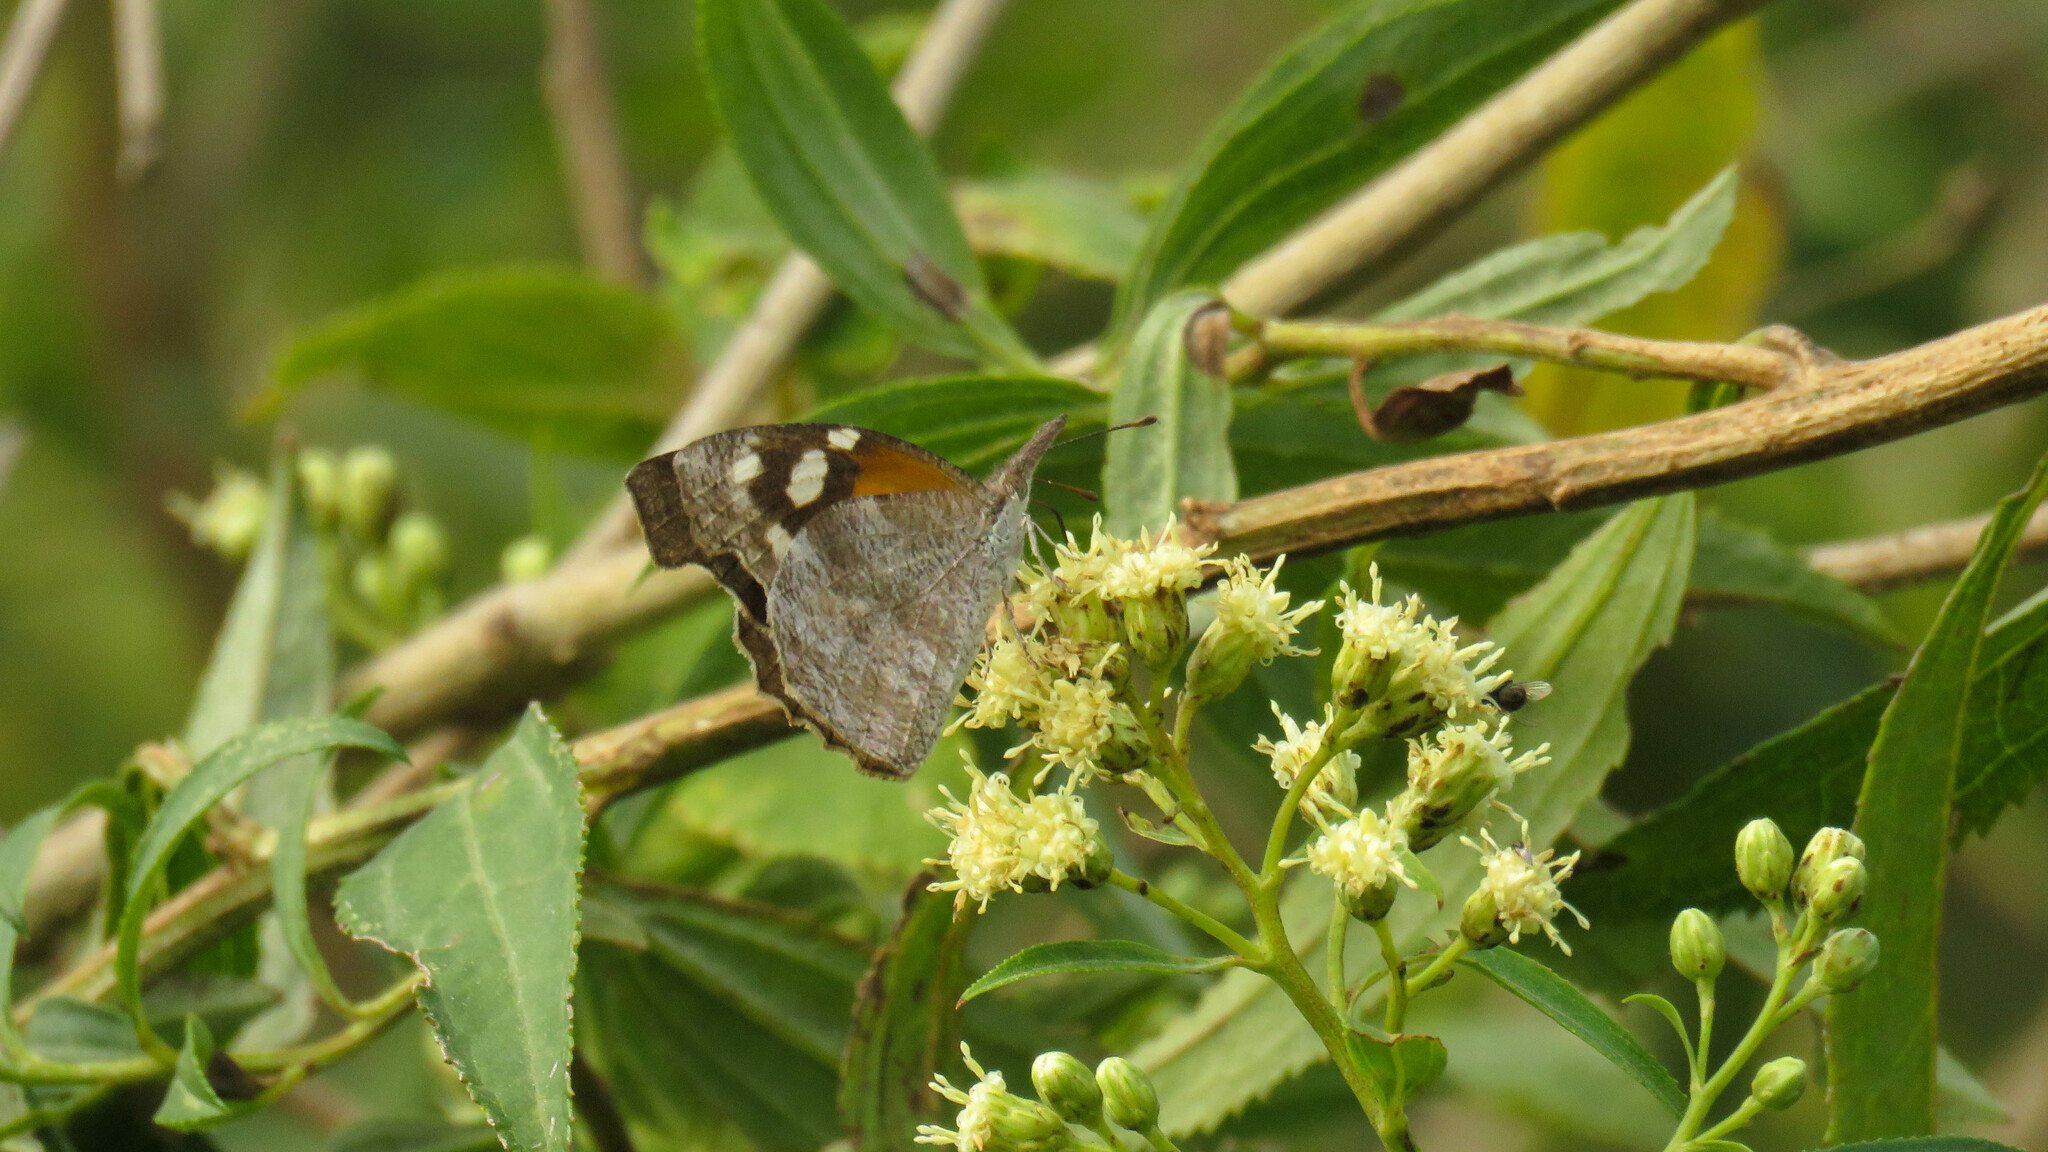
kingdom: Animalia
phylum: Arthropoda
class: Insecta
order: Lepidoptera
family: Nymphalidae
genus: Libytheana
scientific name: Libytheana carinenta
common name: American snout
